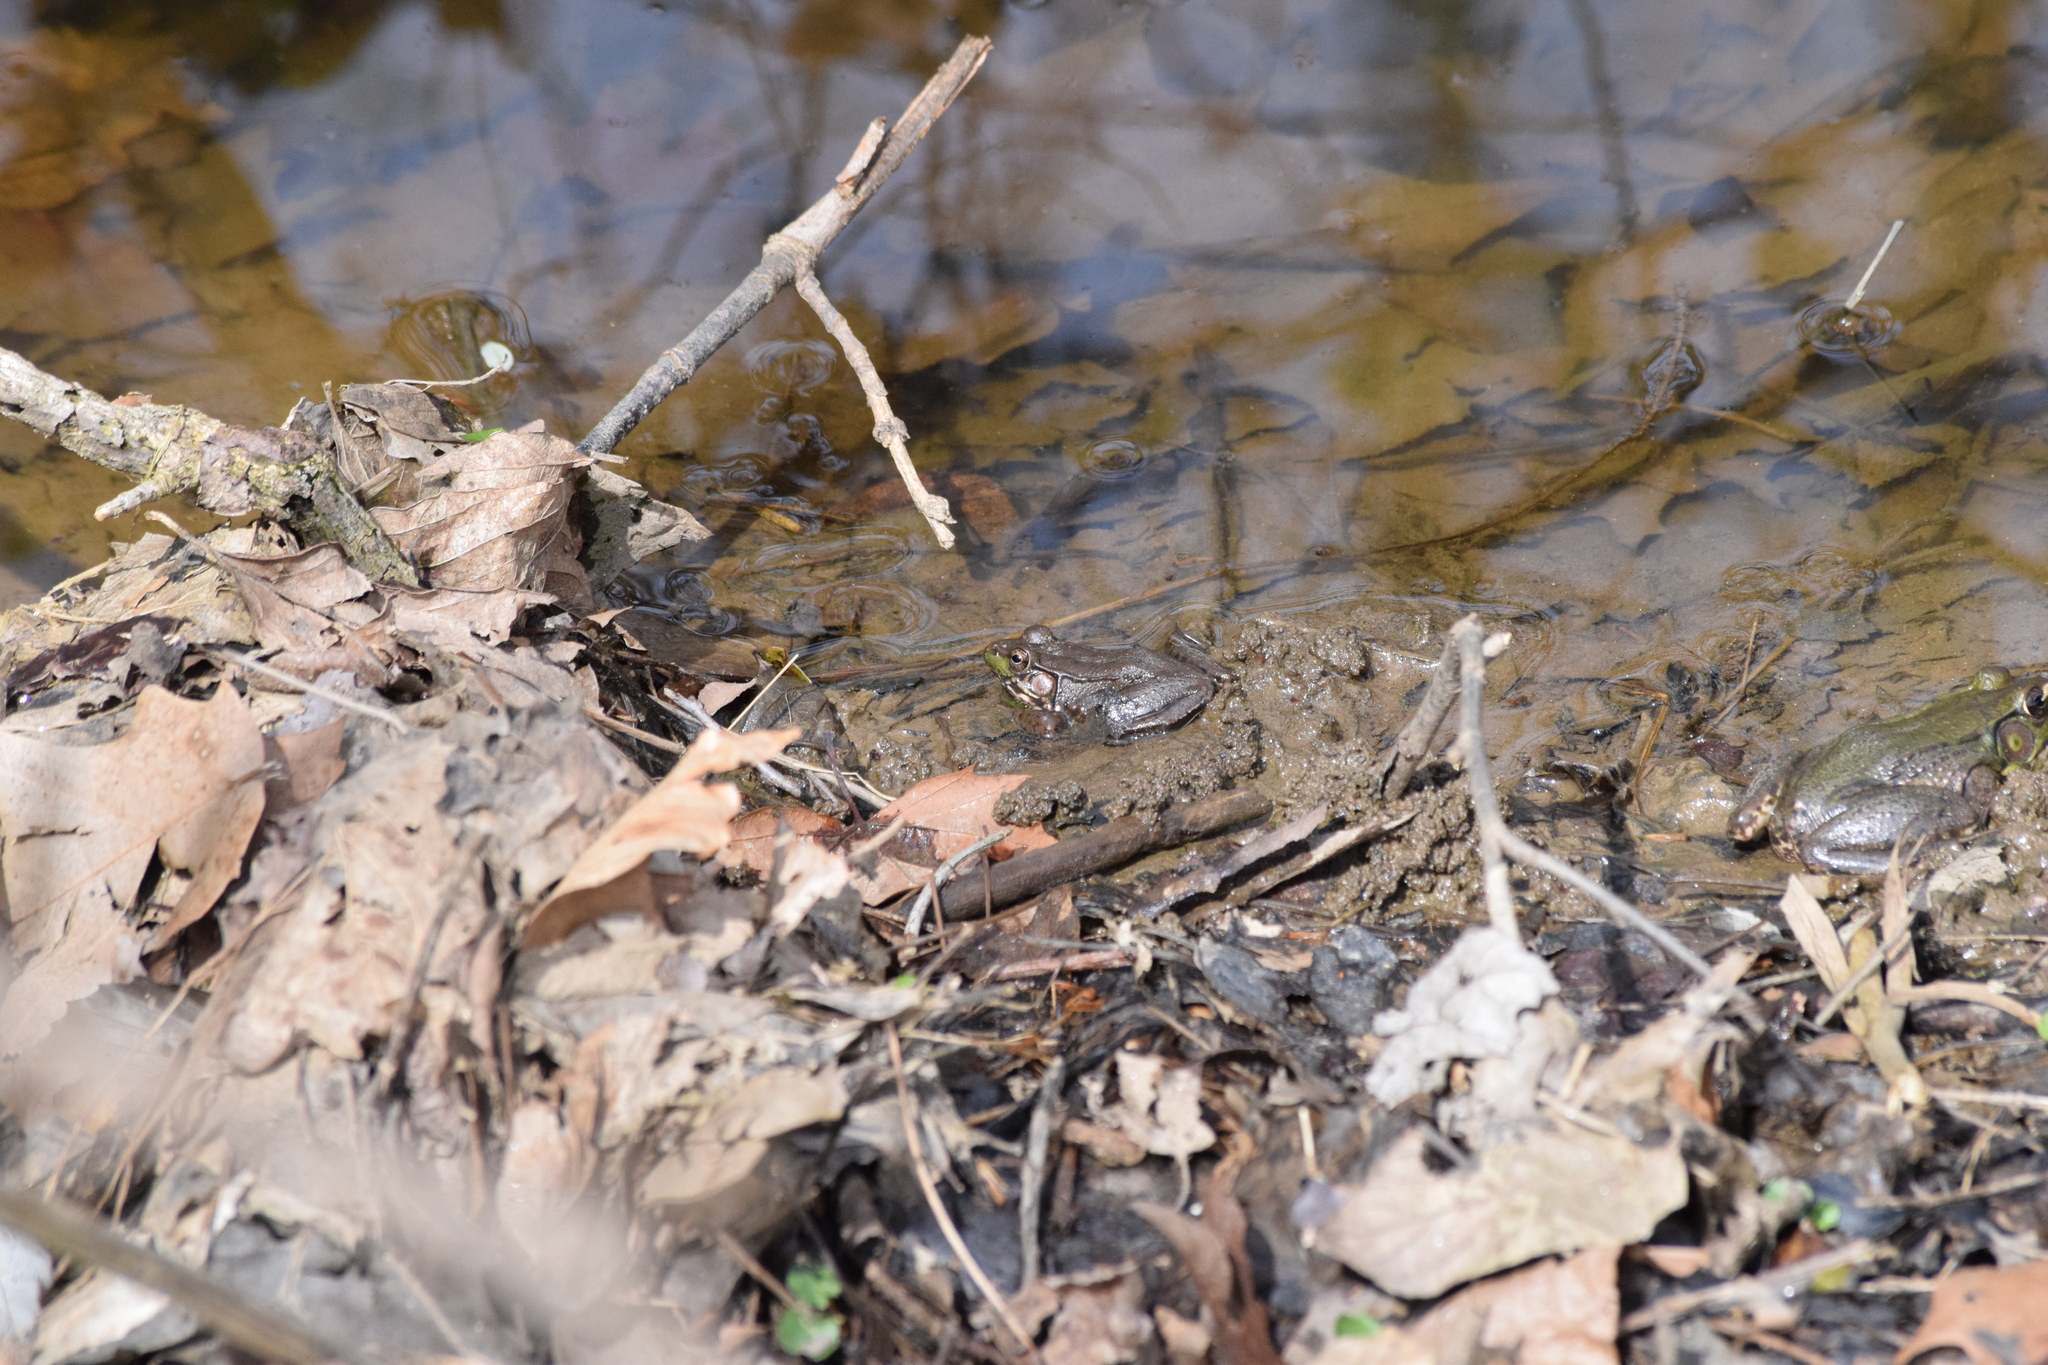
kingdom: Animalia
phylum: Chordata
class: Amphibia
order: Anura
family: Ranidae
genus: Lithobates
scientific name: Lithobates clamitans
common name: Green frog
